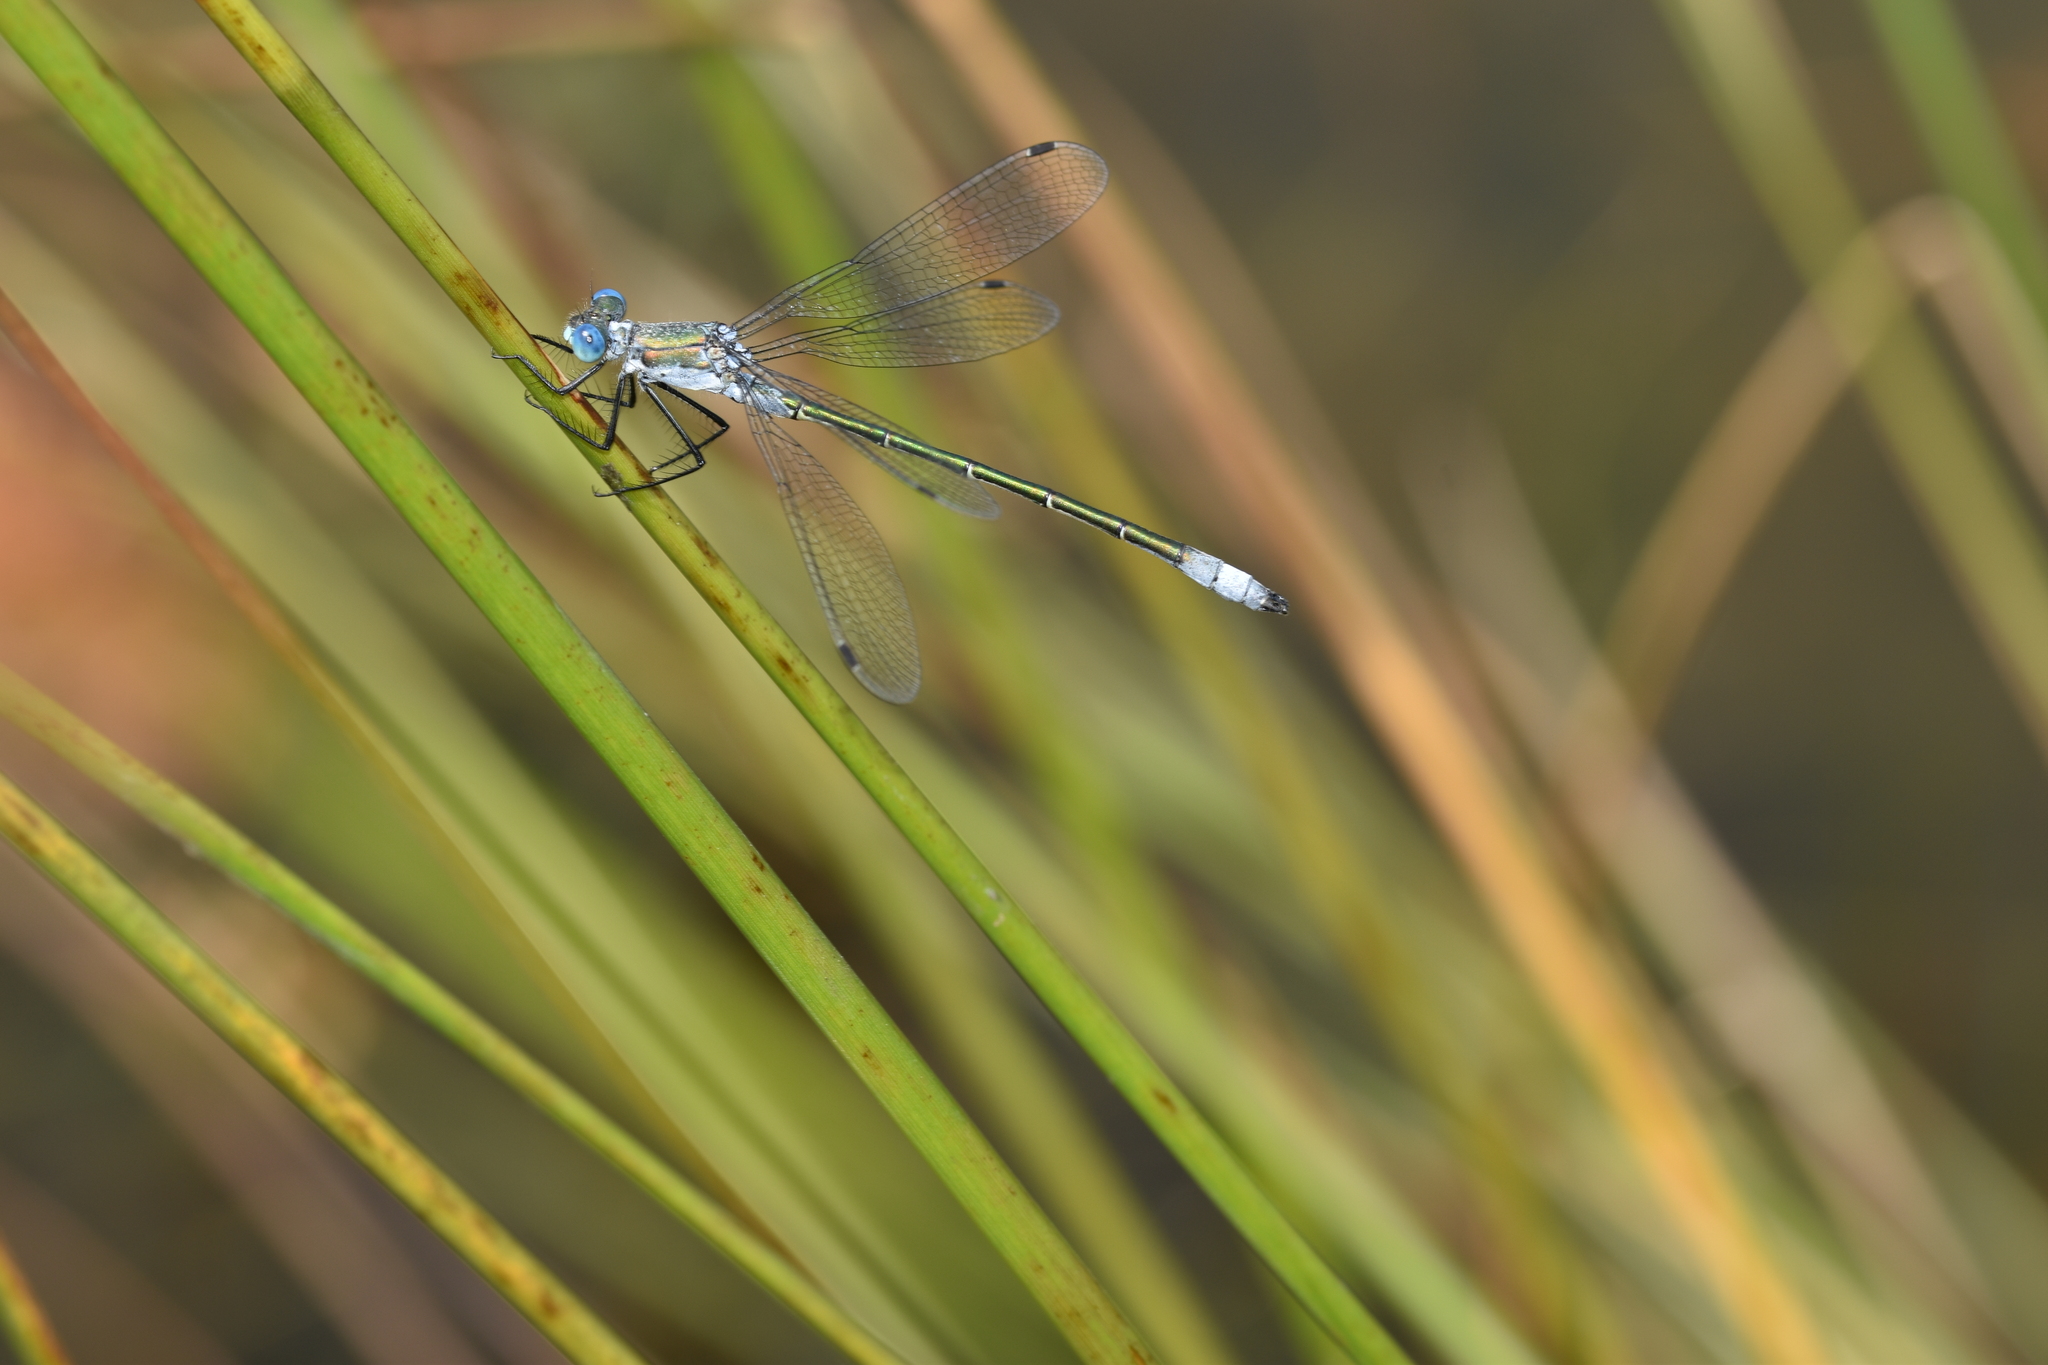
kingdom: Animalia
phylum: Arthropoda
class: Insecta
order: Odonata
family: Lestidae
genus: Lestes
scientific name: Lestes dryas
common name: Scarce emerald damselfly
